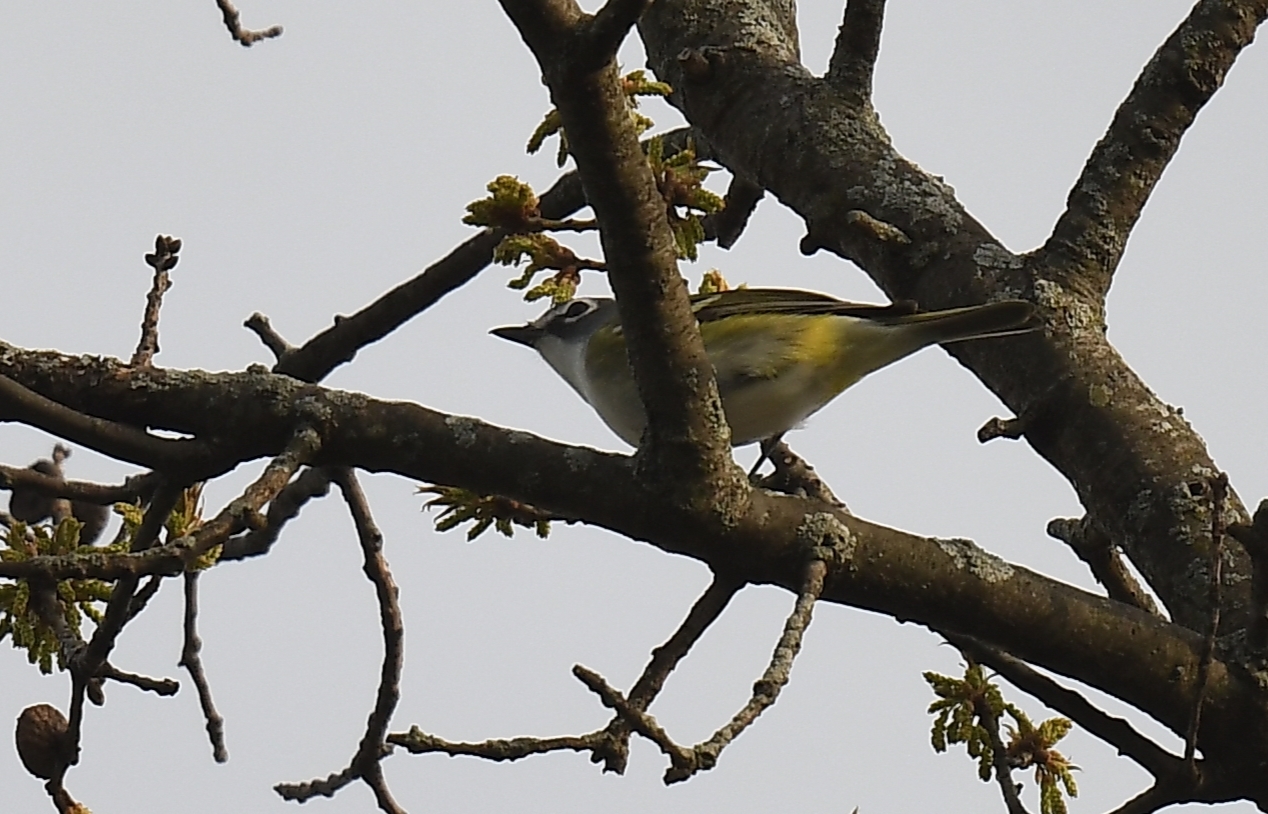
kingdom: Animalia
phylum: Chordata
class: Aves
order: Passeriformes
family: Vireonidae
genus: Vireo
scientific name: Vireo solitarius
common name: Blue-headed vireo
